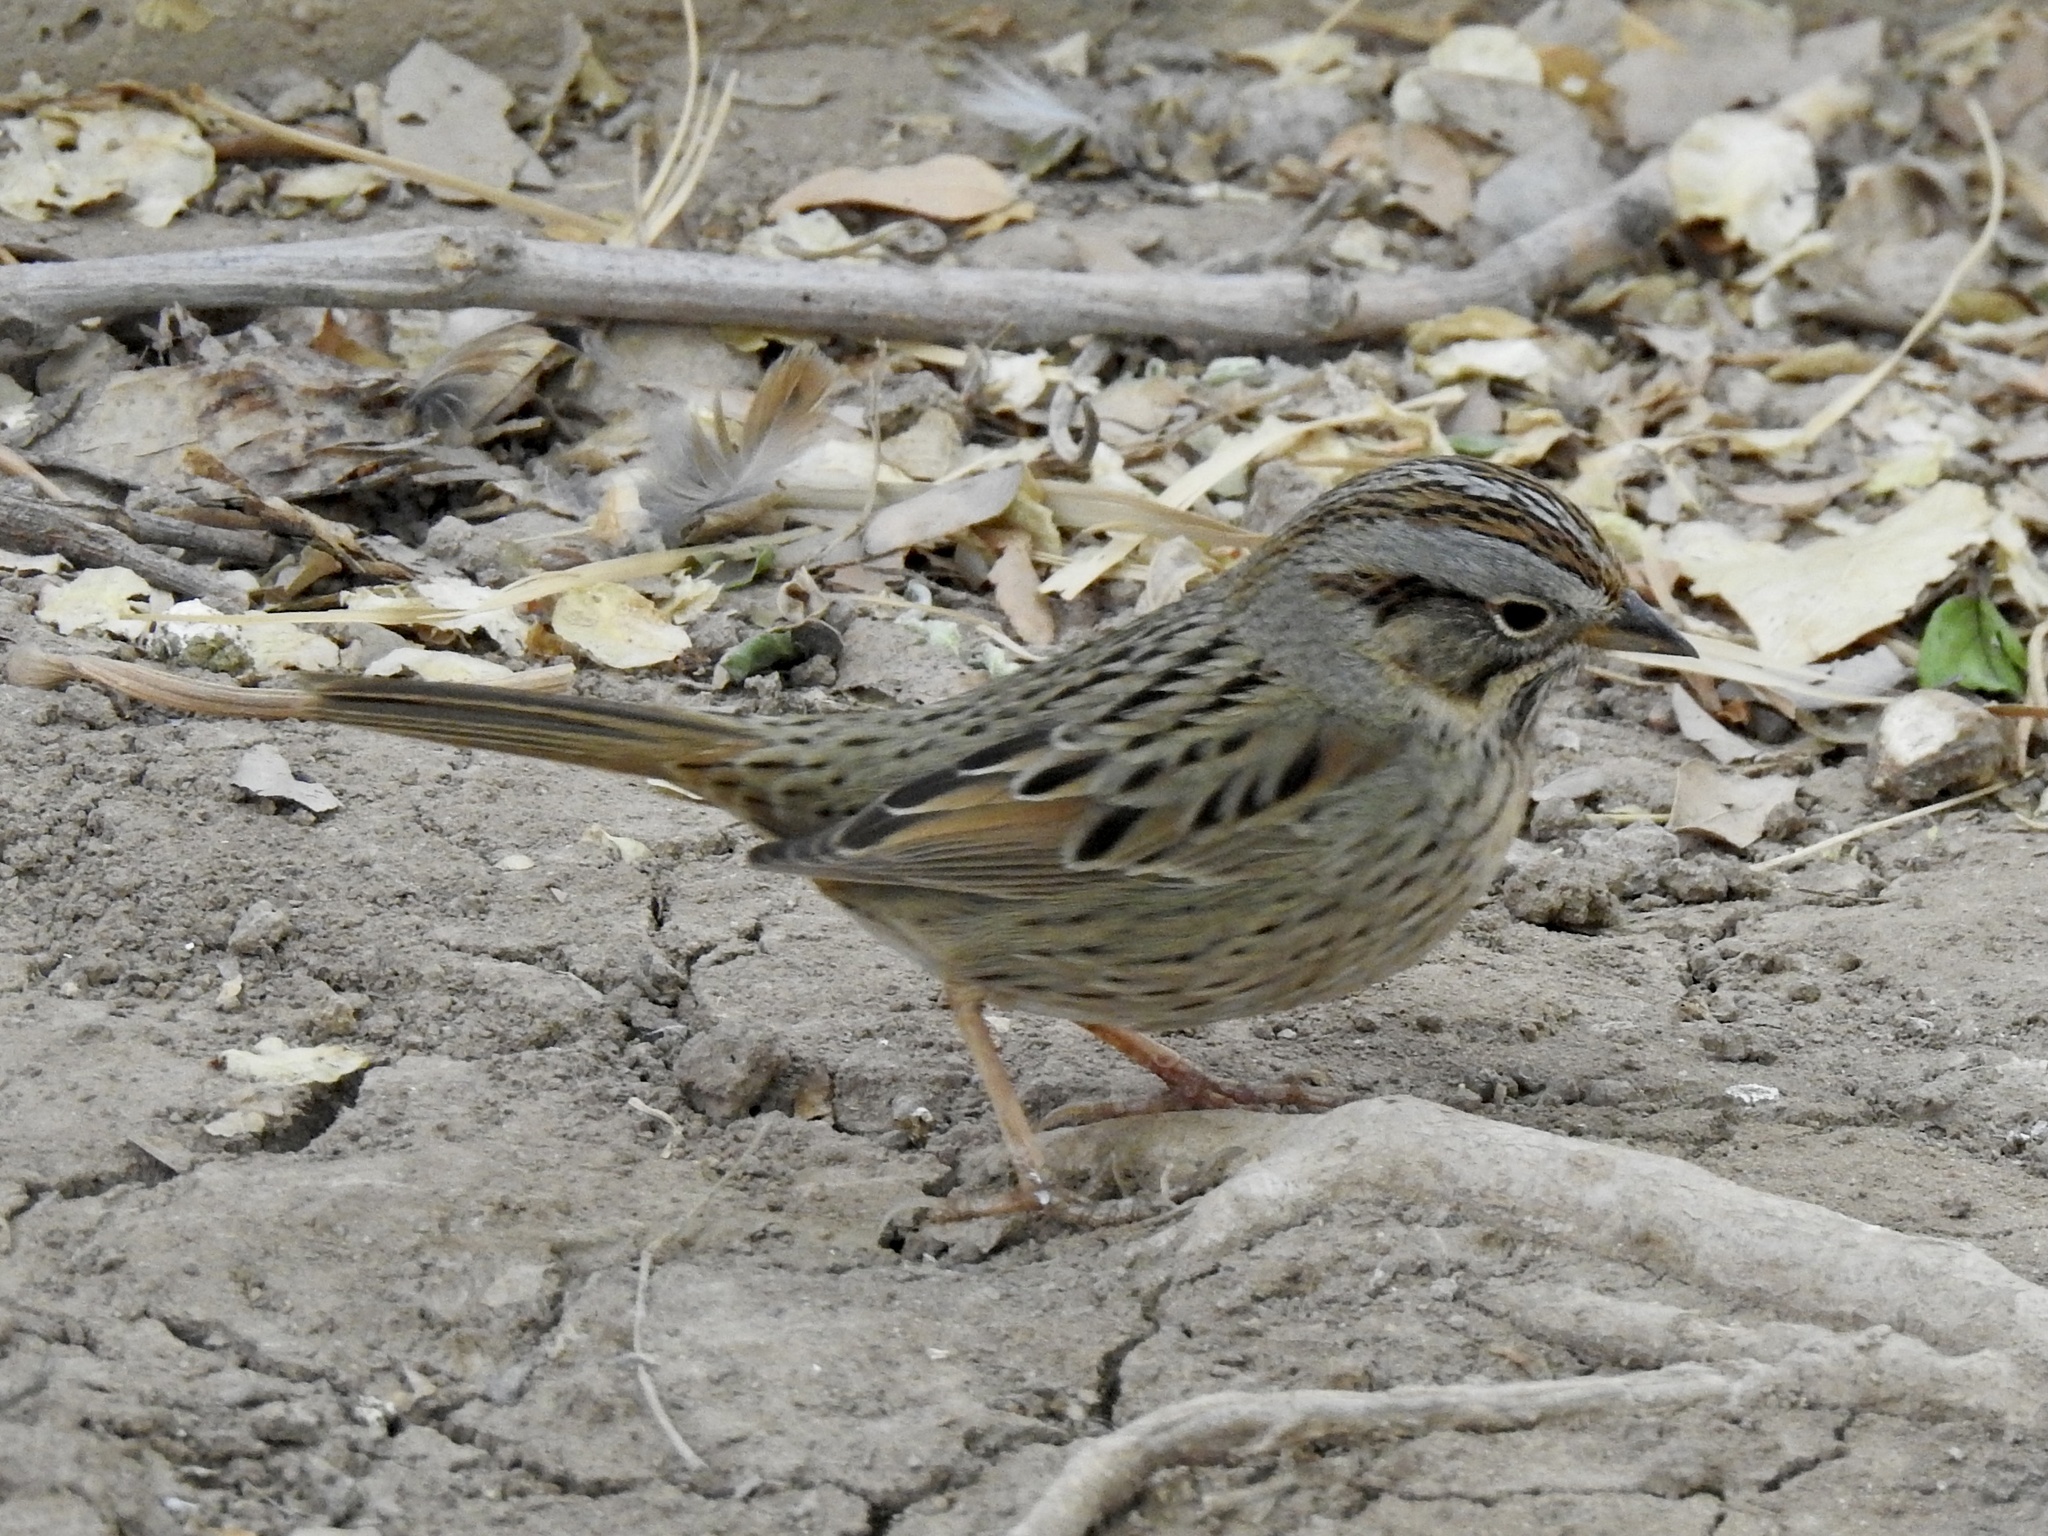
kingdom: Animalia
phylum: Chordata
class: Aves
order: Passeriformes
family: Passerellidae
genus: Melospiza
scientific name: Melospiza lincolnii
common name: Lincoln's sparrow
